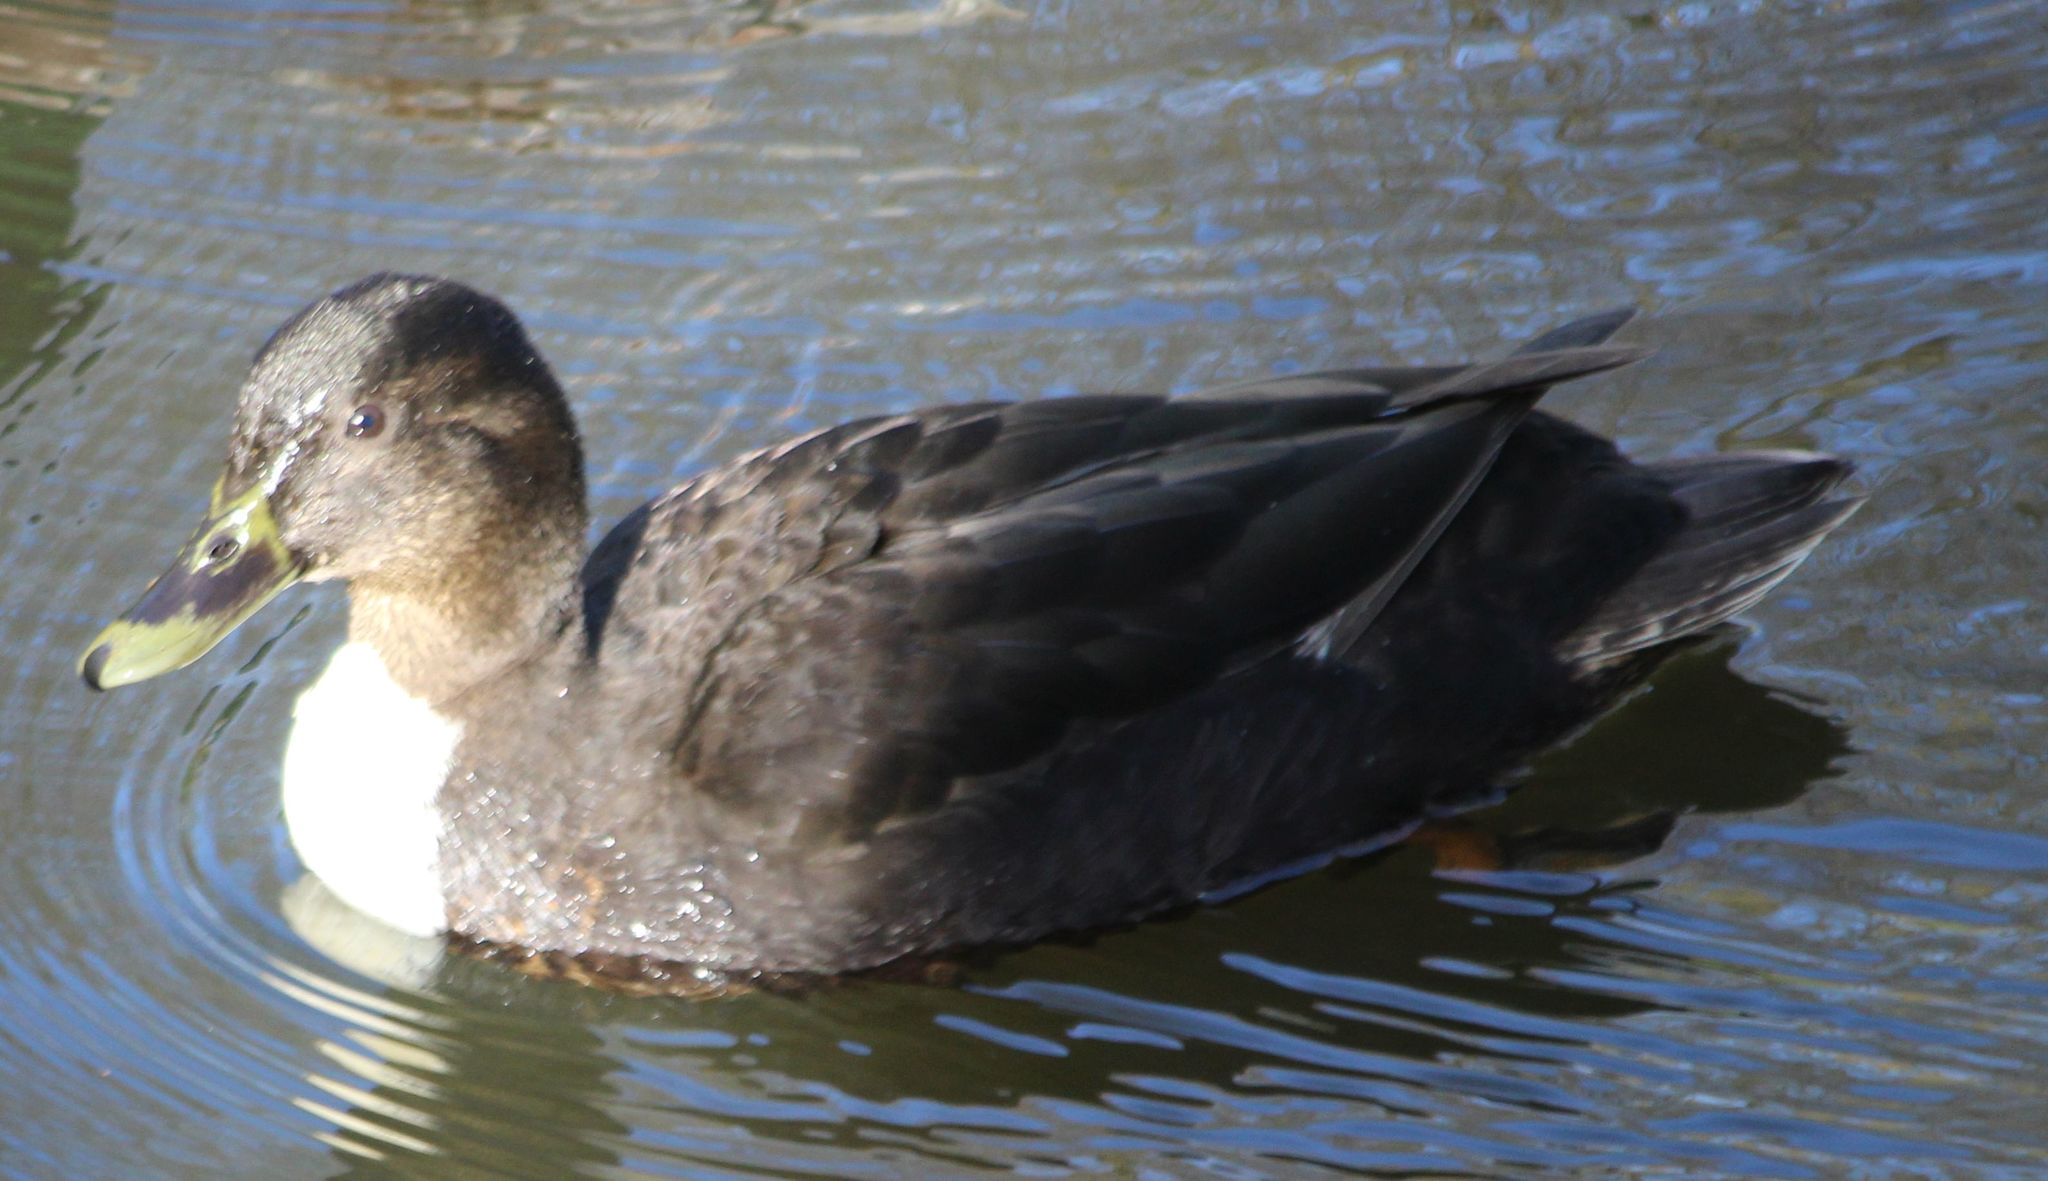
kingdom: Animalia
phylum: Chordata
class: Aves
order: Anseriformes
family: Anatidae
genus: Anas
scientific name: Anas platyrhynchos
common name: Mallard
